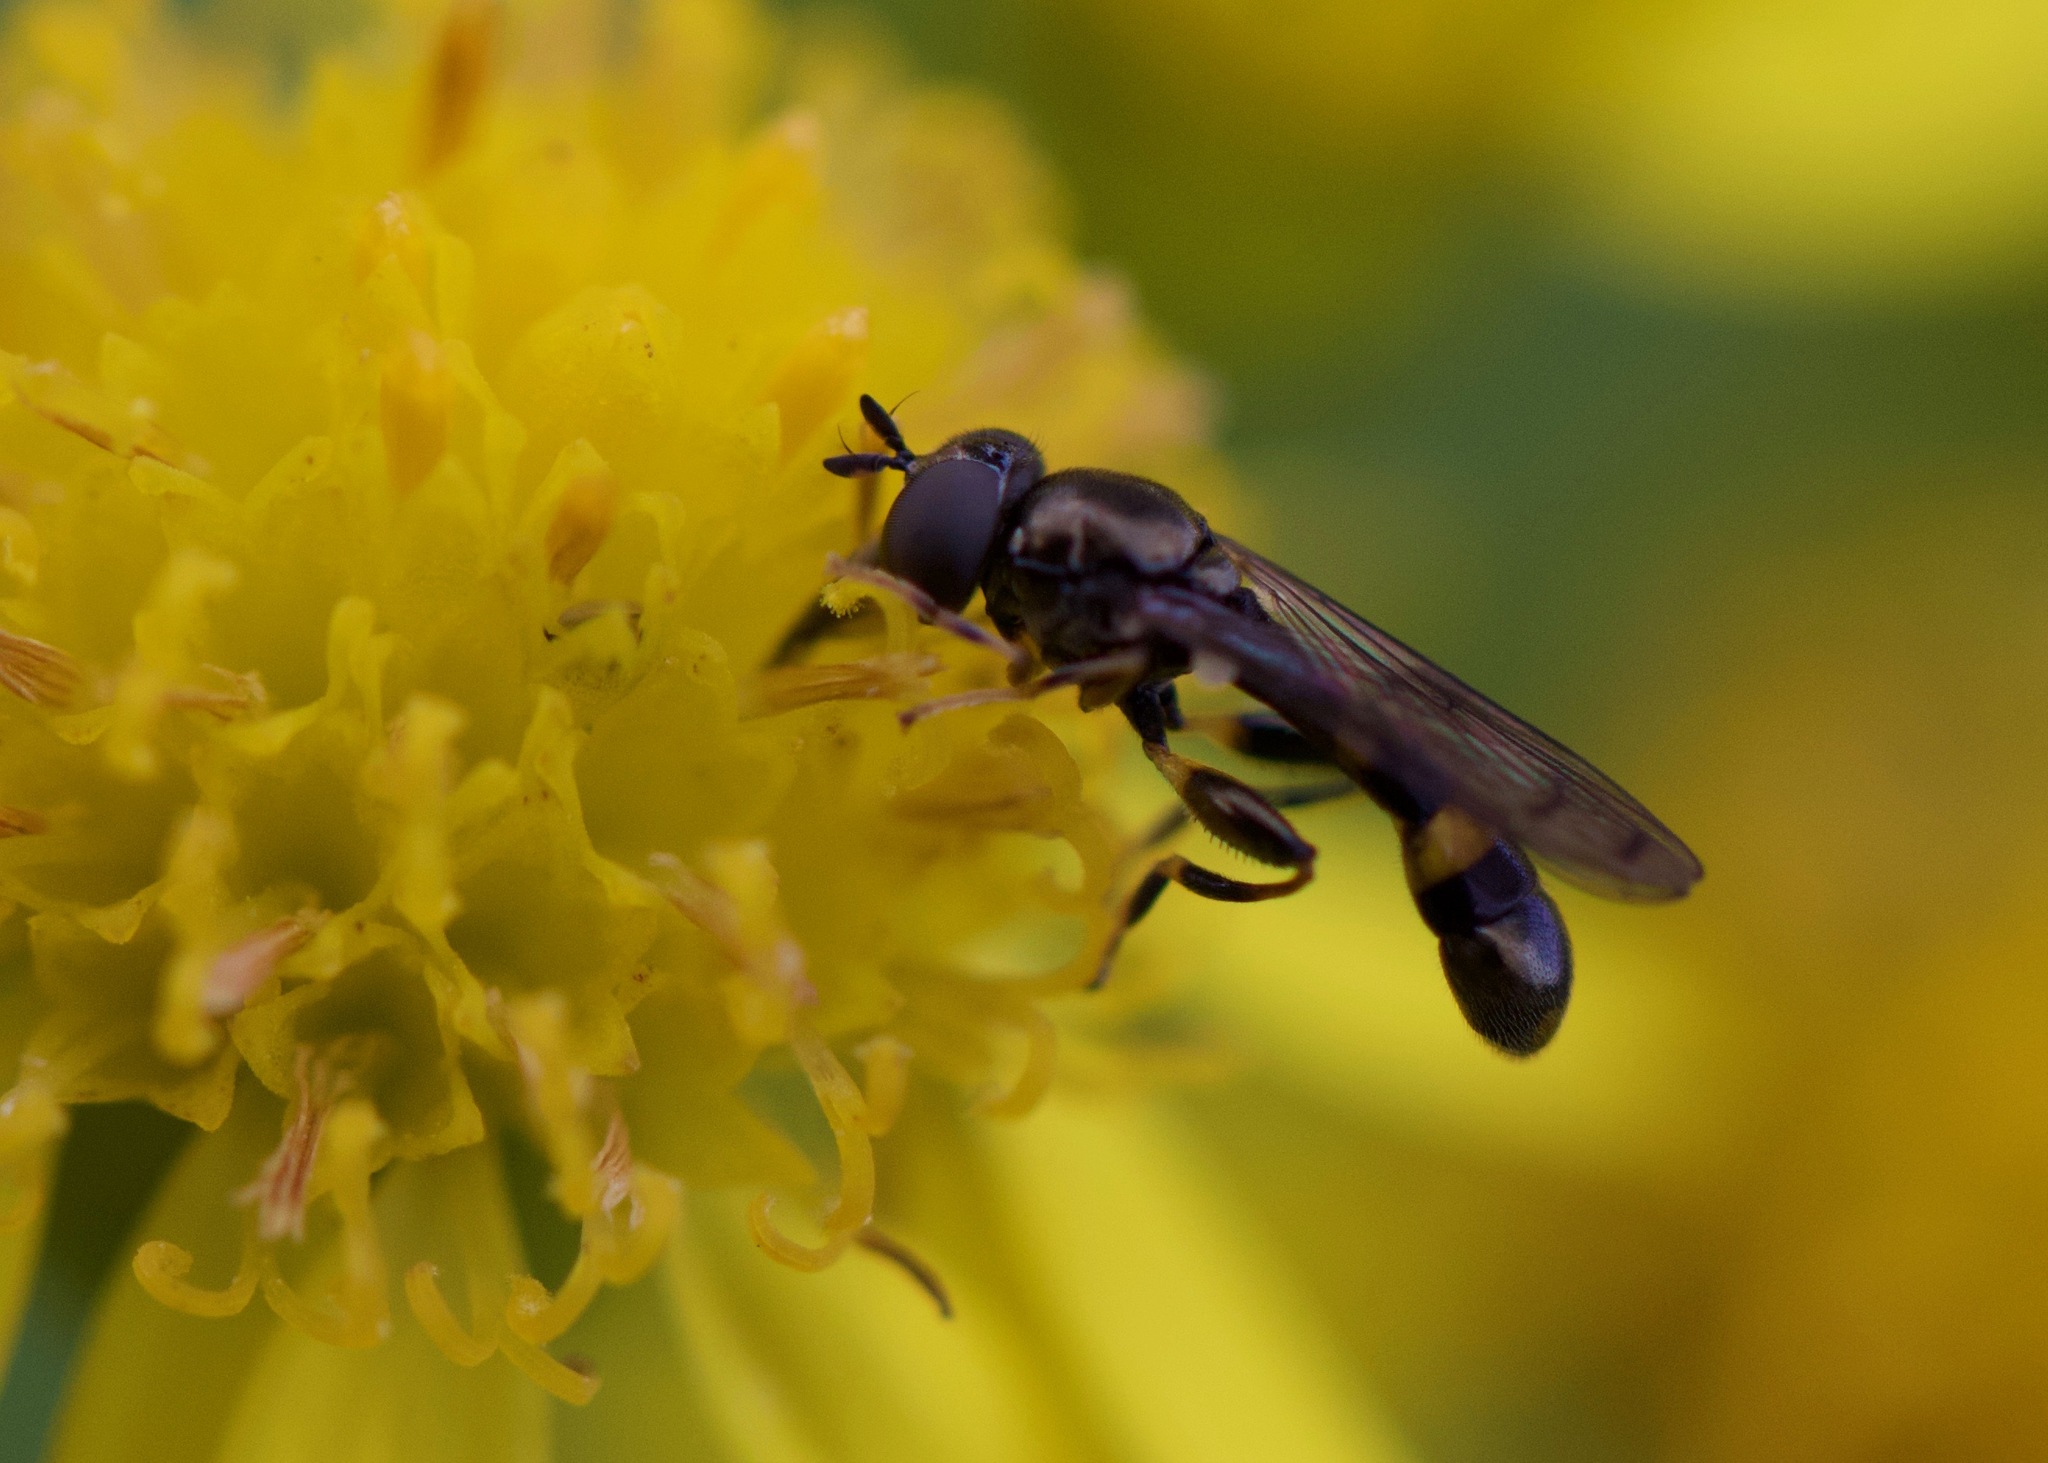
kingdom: Animalia
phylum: Arthropoda
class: Insecta
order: Diptera
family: Syrphidae
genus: Neoascia
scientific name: Neoascia
